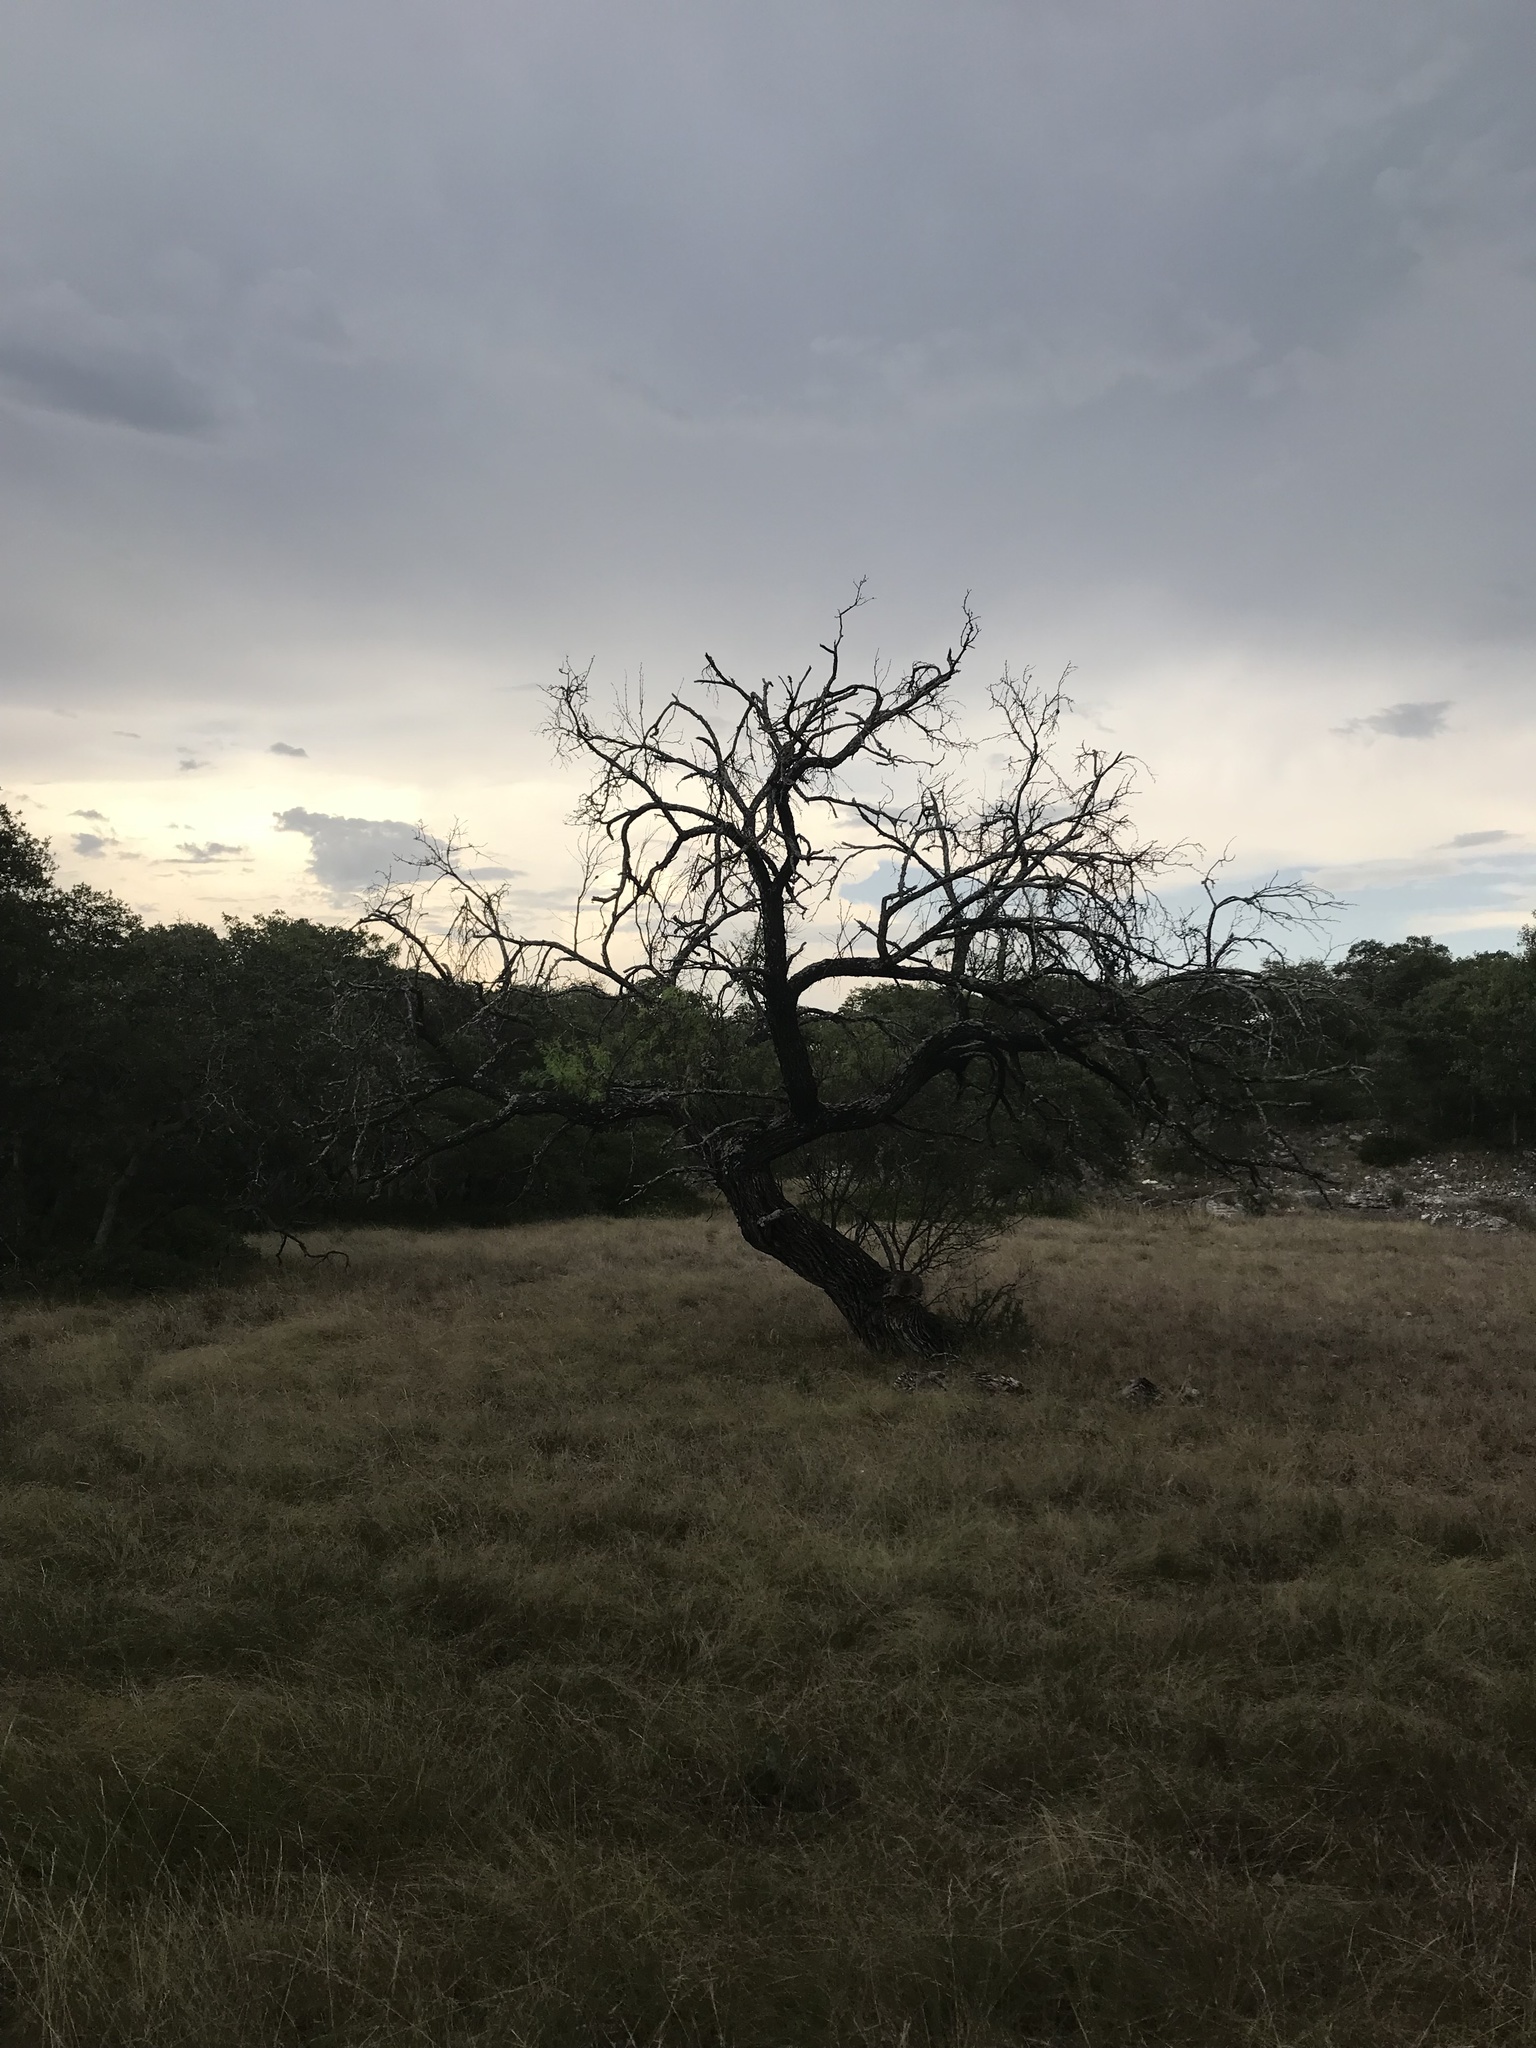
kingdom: Plantae
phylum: Tracheophyta
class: Magnoliopsida
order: Fabales
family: Fabaceae
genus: Prosopis
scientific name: Prosopis glandulosa
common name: Honey mesquite
